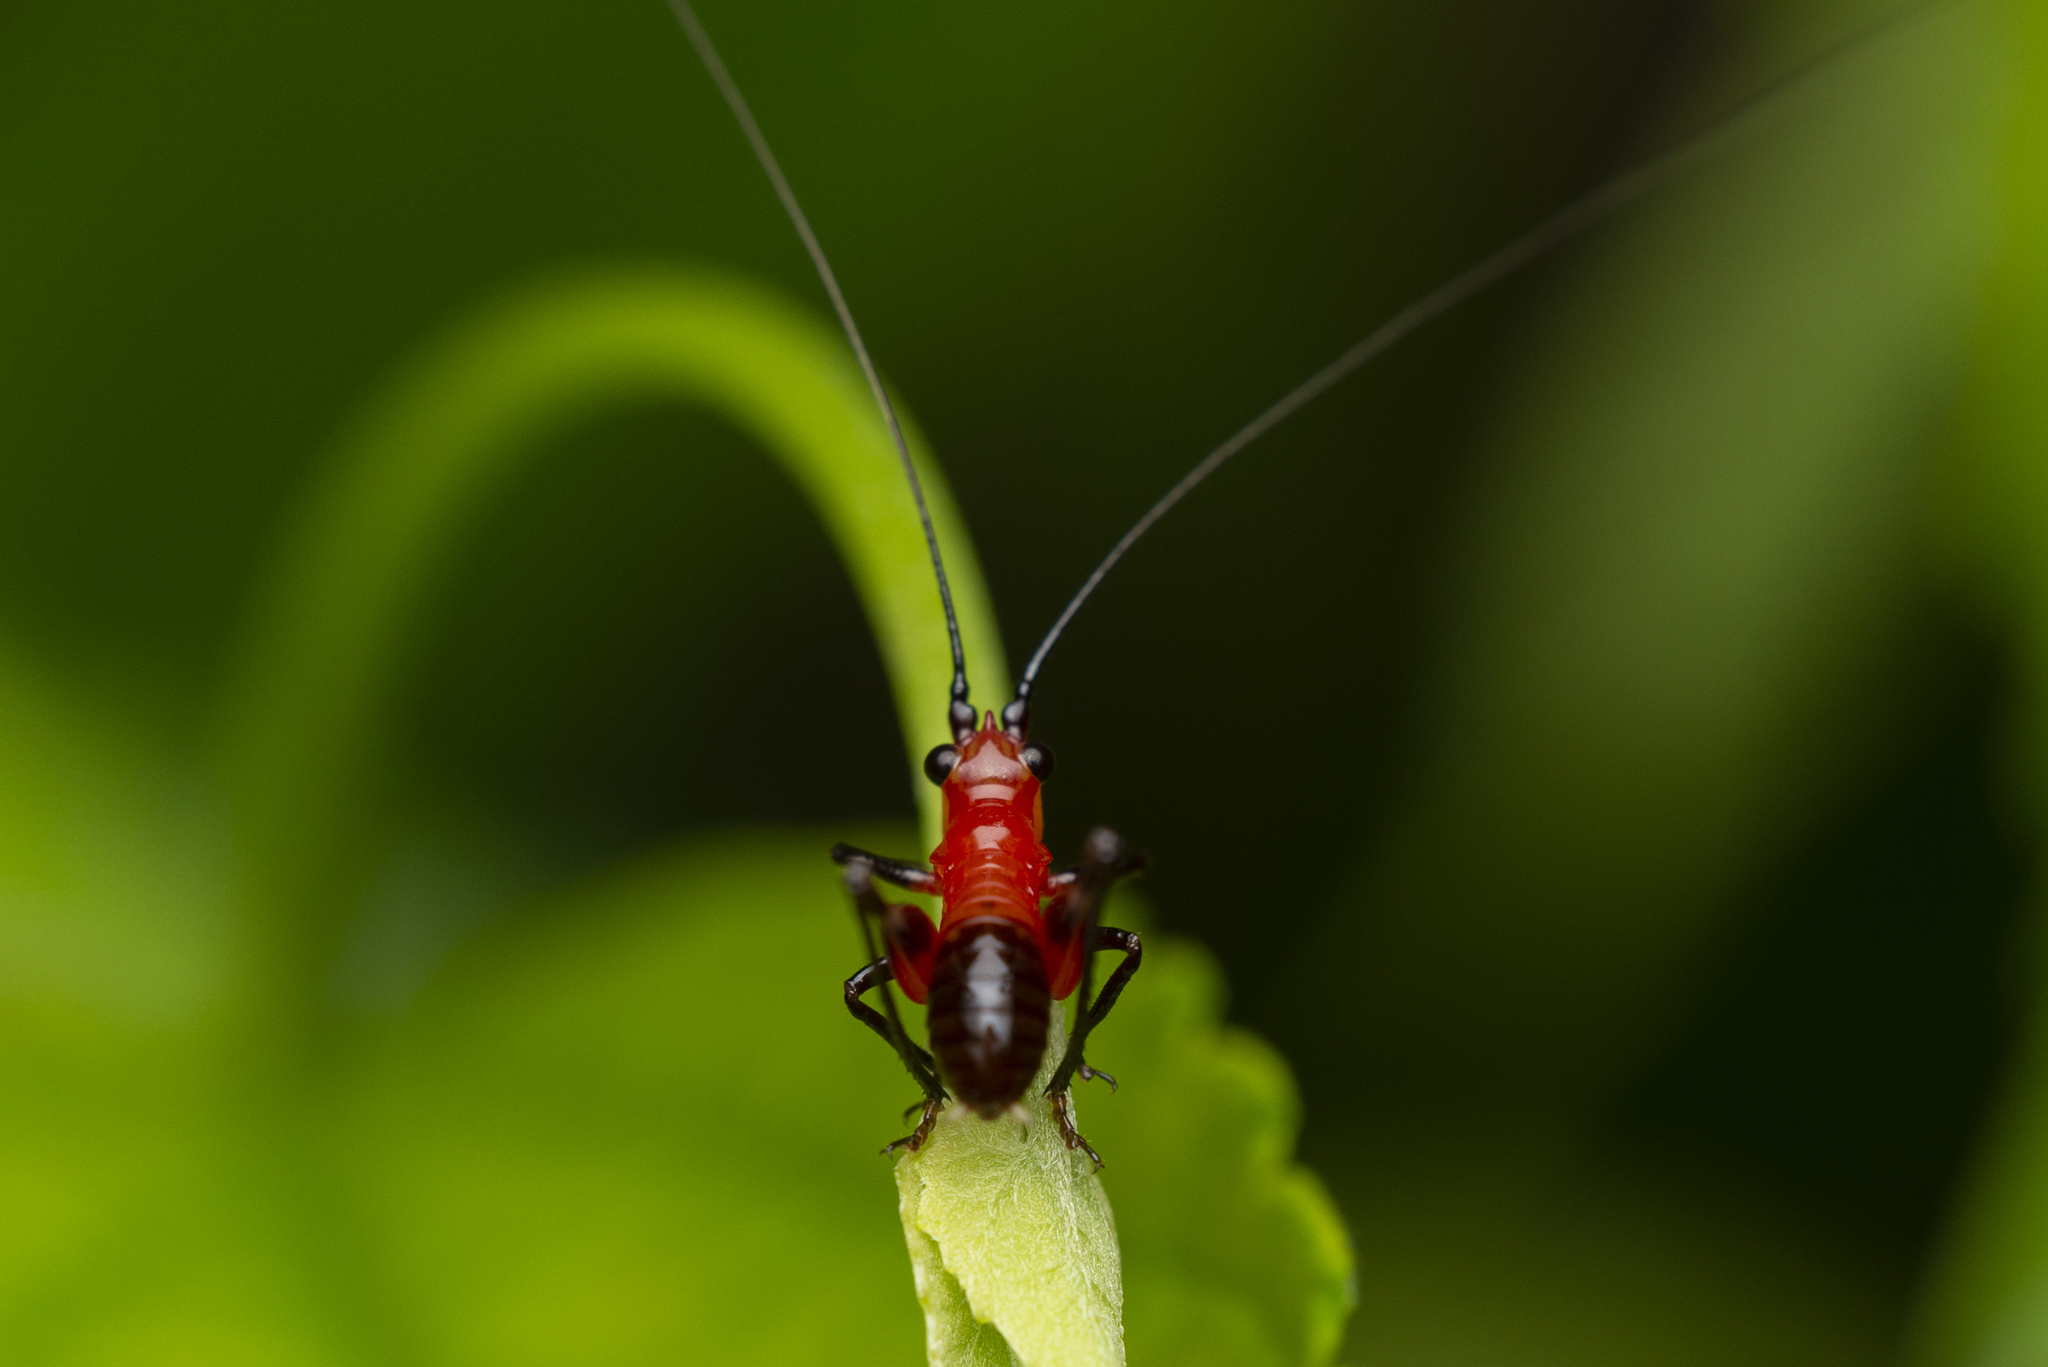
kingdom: Animalia
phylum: Arthropoda
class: Insecta
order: Orthoptera
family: Tettigoniidae
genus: Conocephalus
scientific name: Conocephalus melaenus
